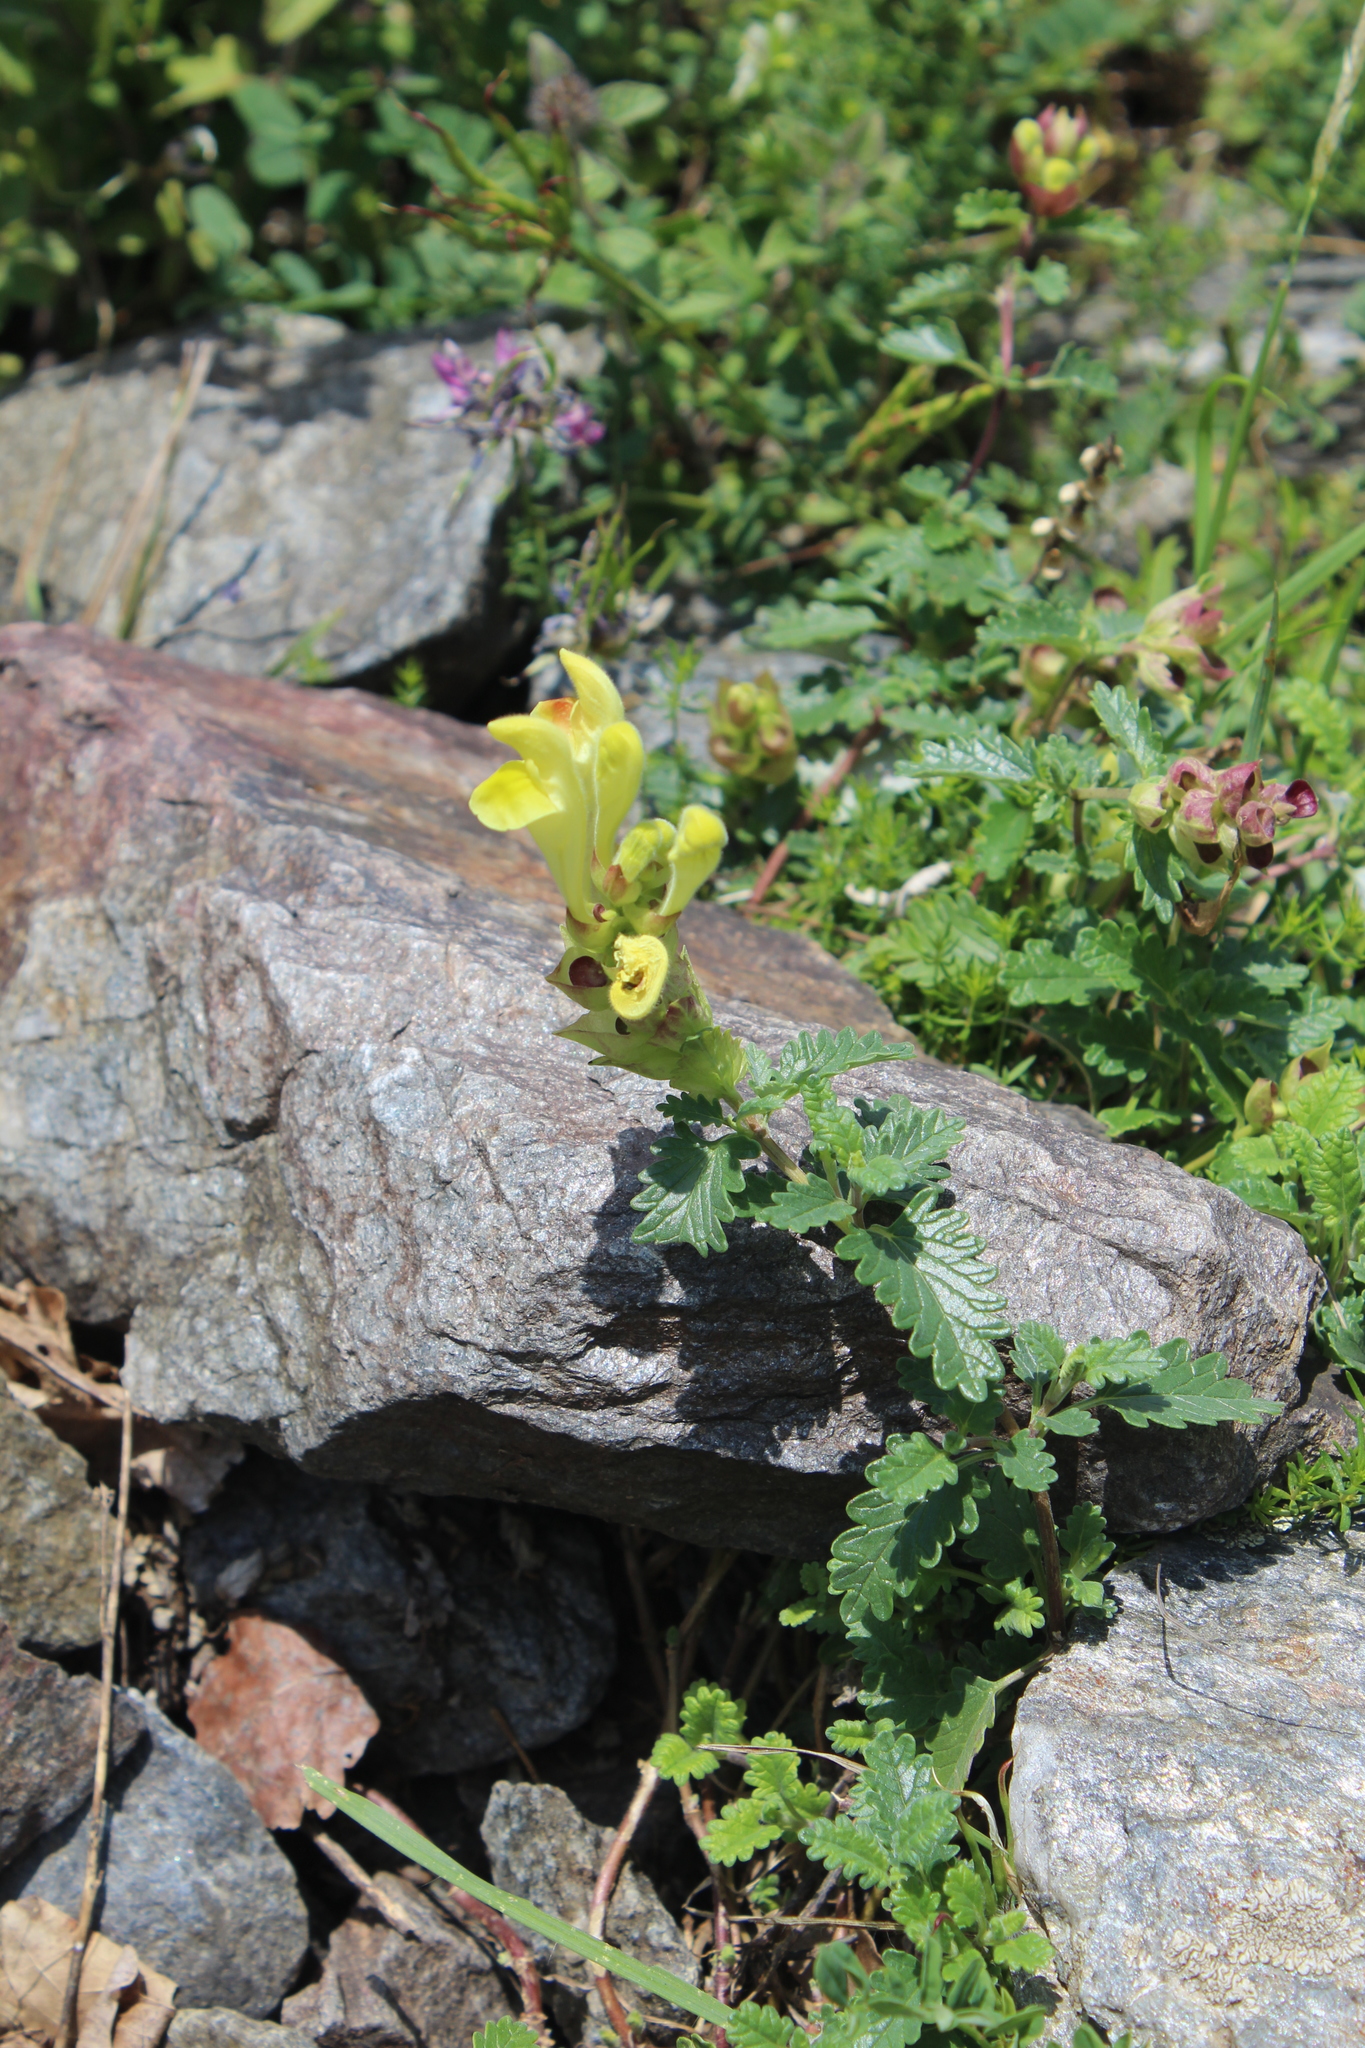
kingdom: Plantae
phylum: Tracheophyta
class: Magnoliopsida
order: Lamiales
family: Lamiaceae
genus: Scutellaria
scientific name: Scutellaria orientalis
